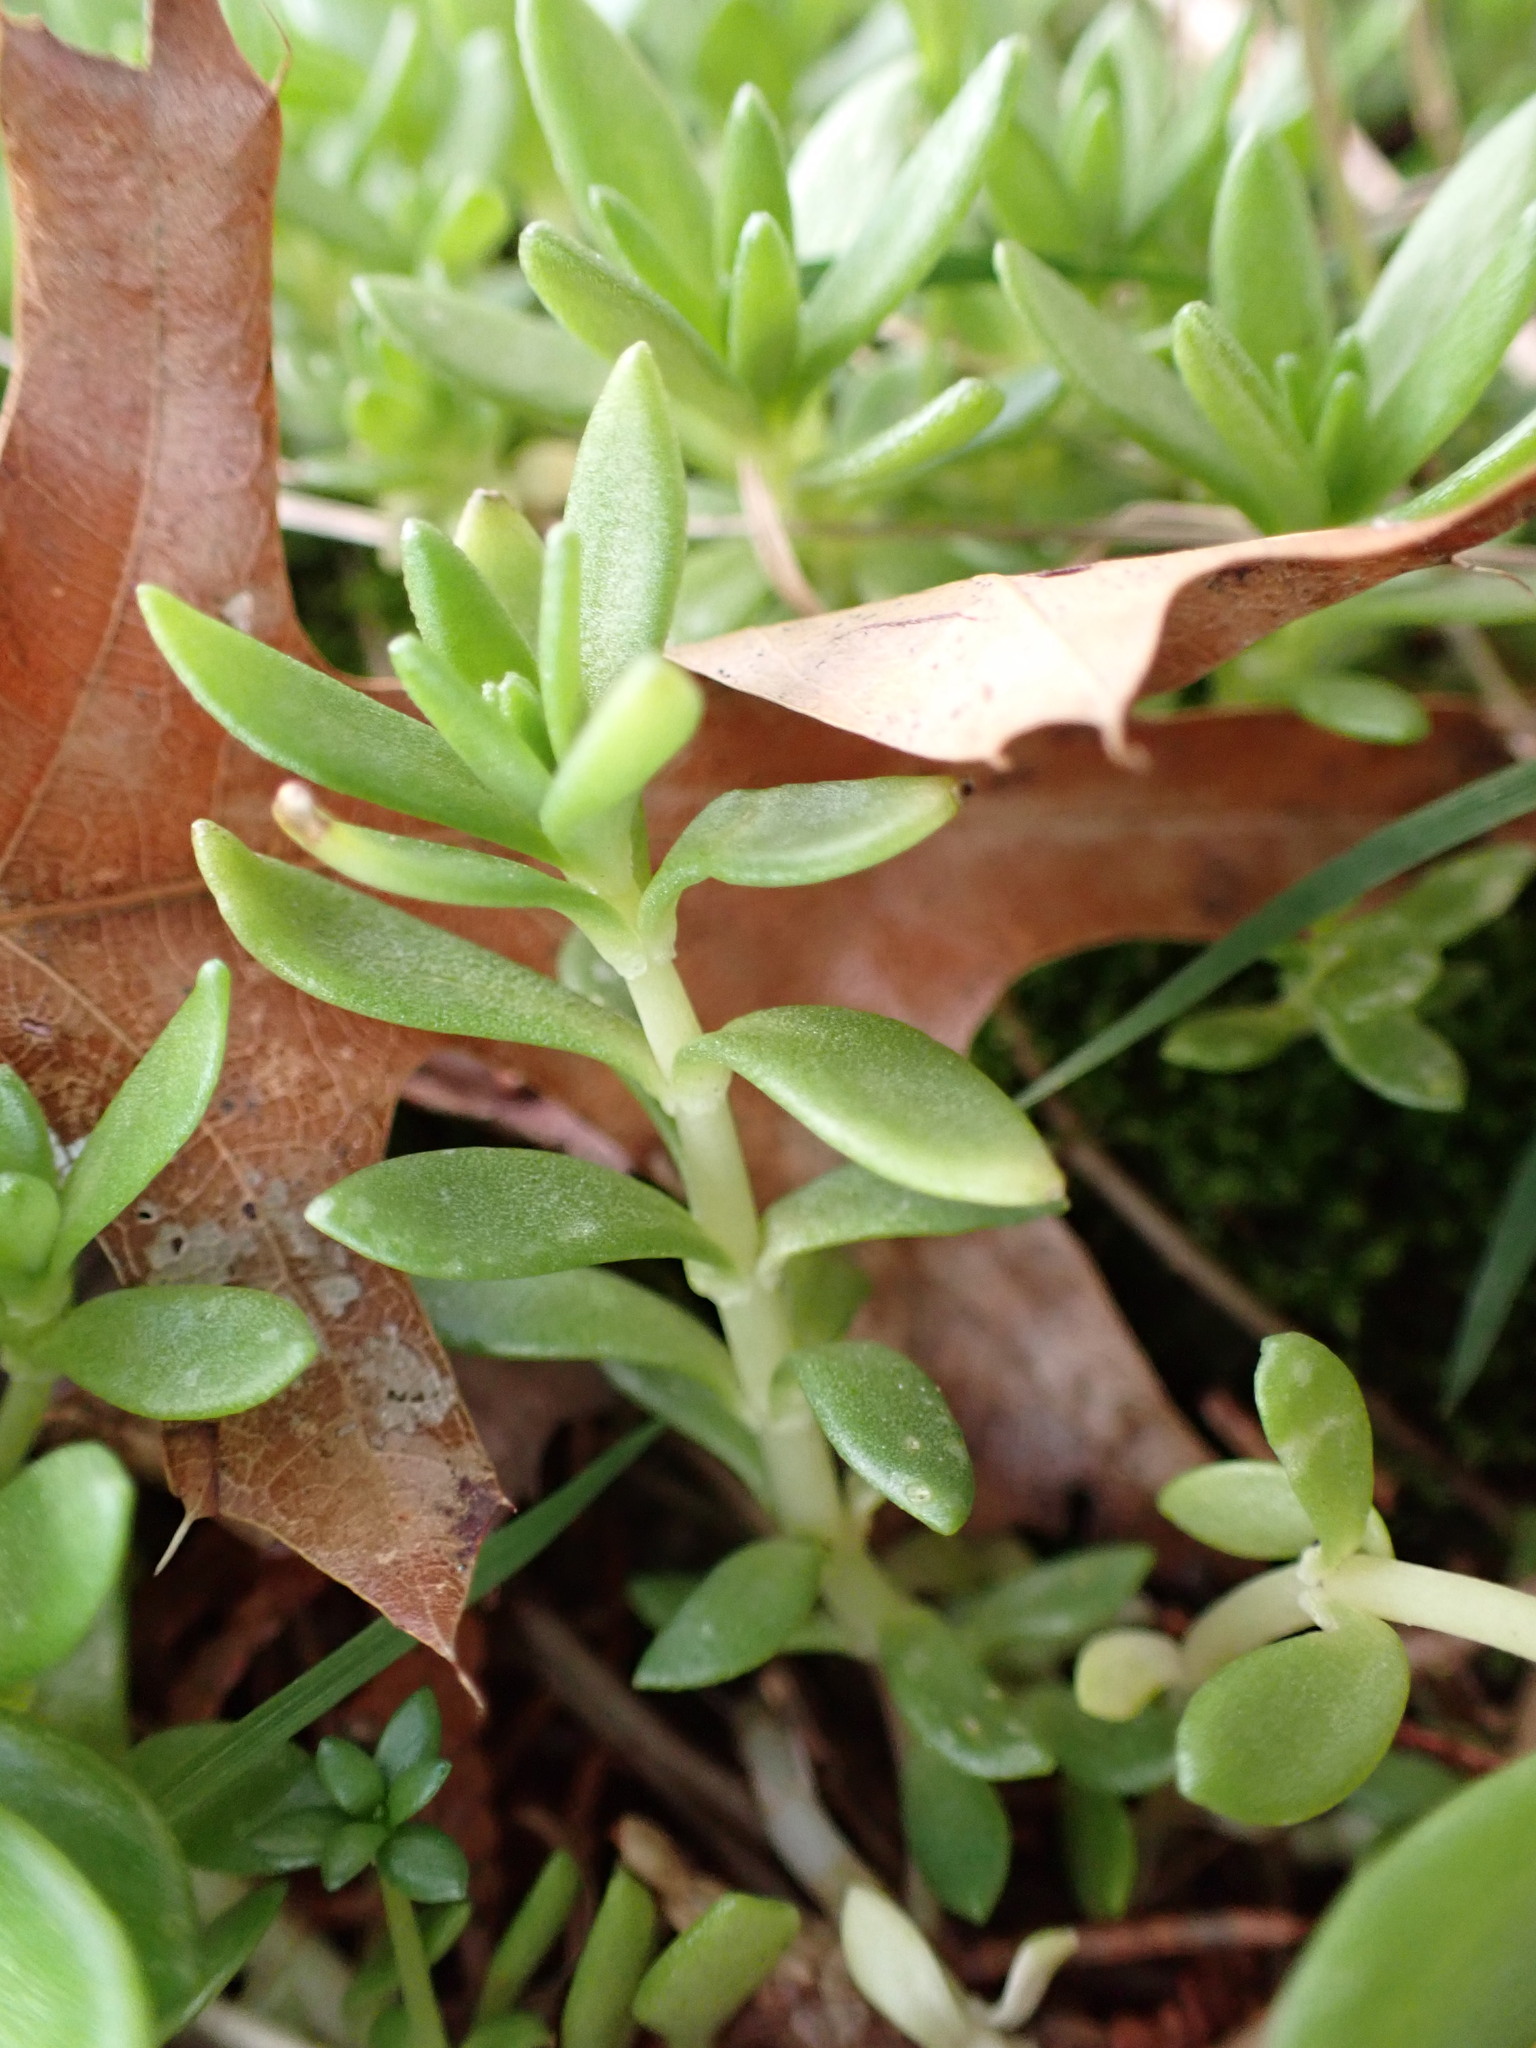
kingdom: Plantae
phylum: Tracheophyta
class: Magnoliopsida
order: Saxifragales
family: Crassulaceae
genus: Sedum
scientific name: Sedum sarmentosum
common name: Stringy stonecrop
